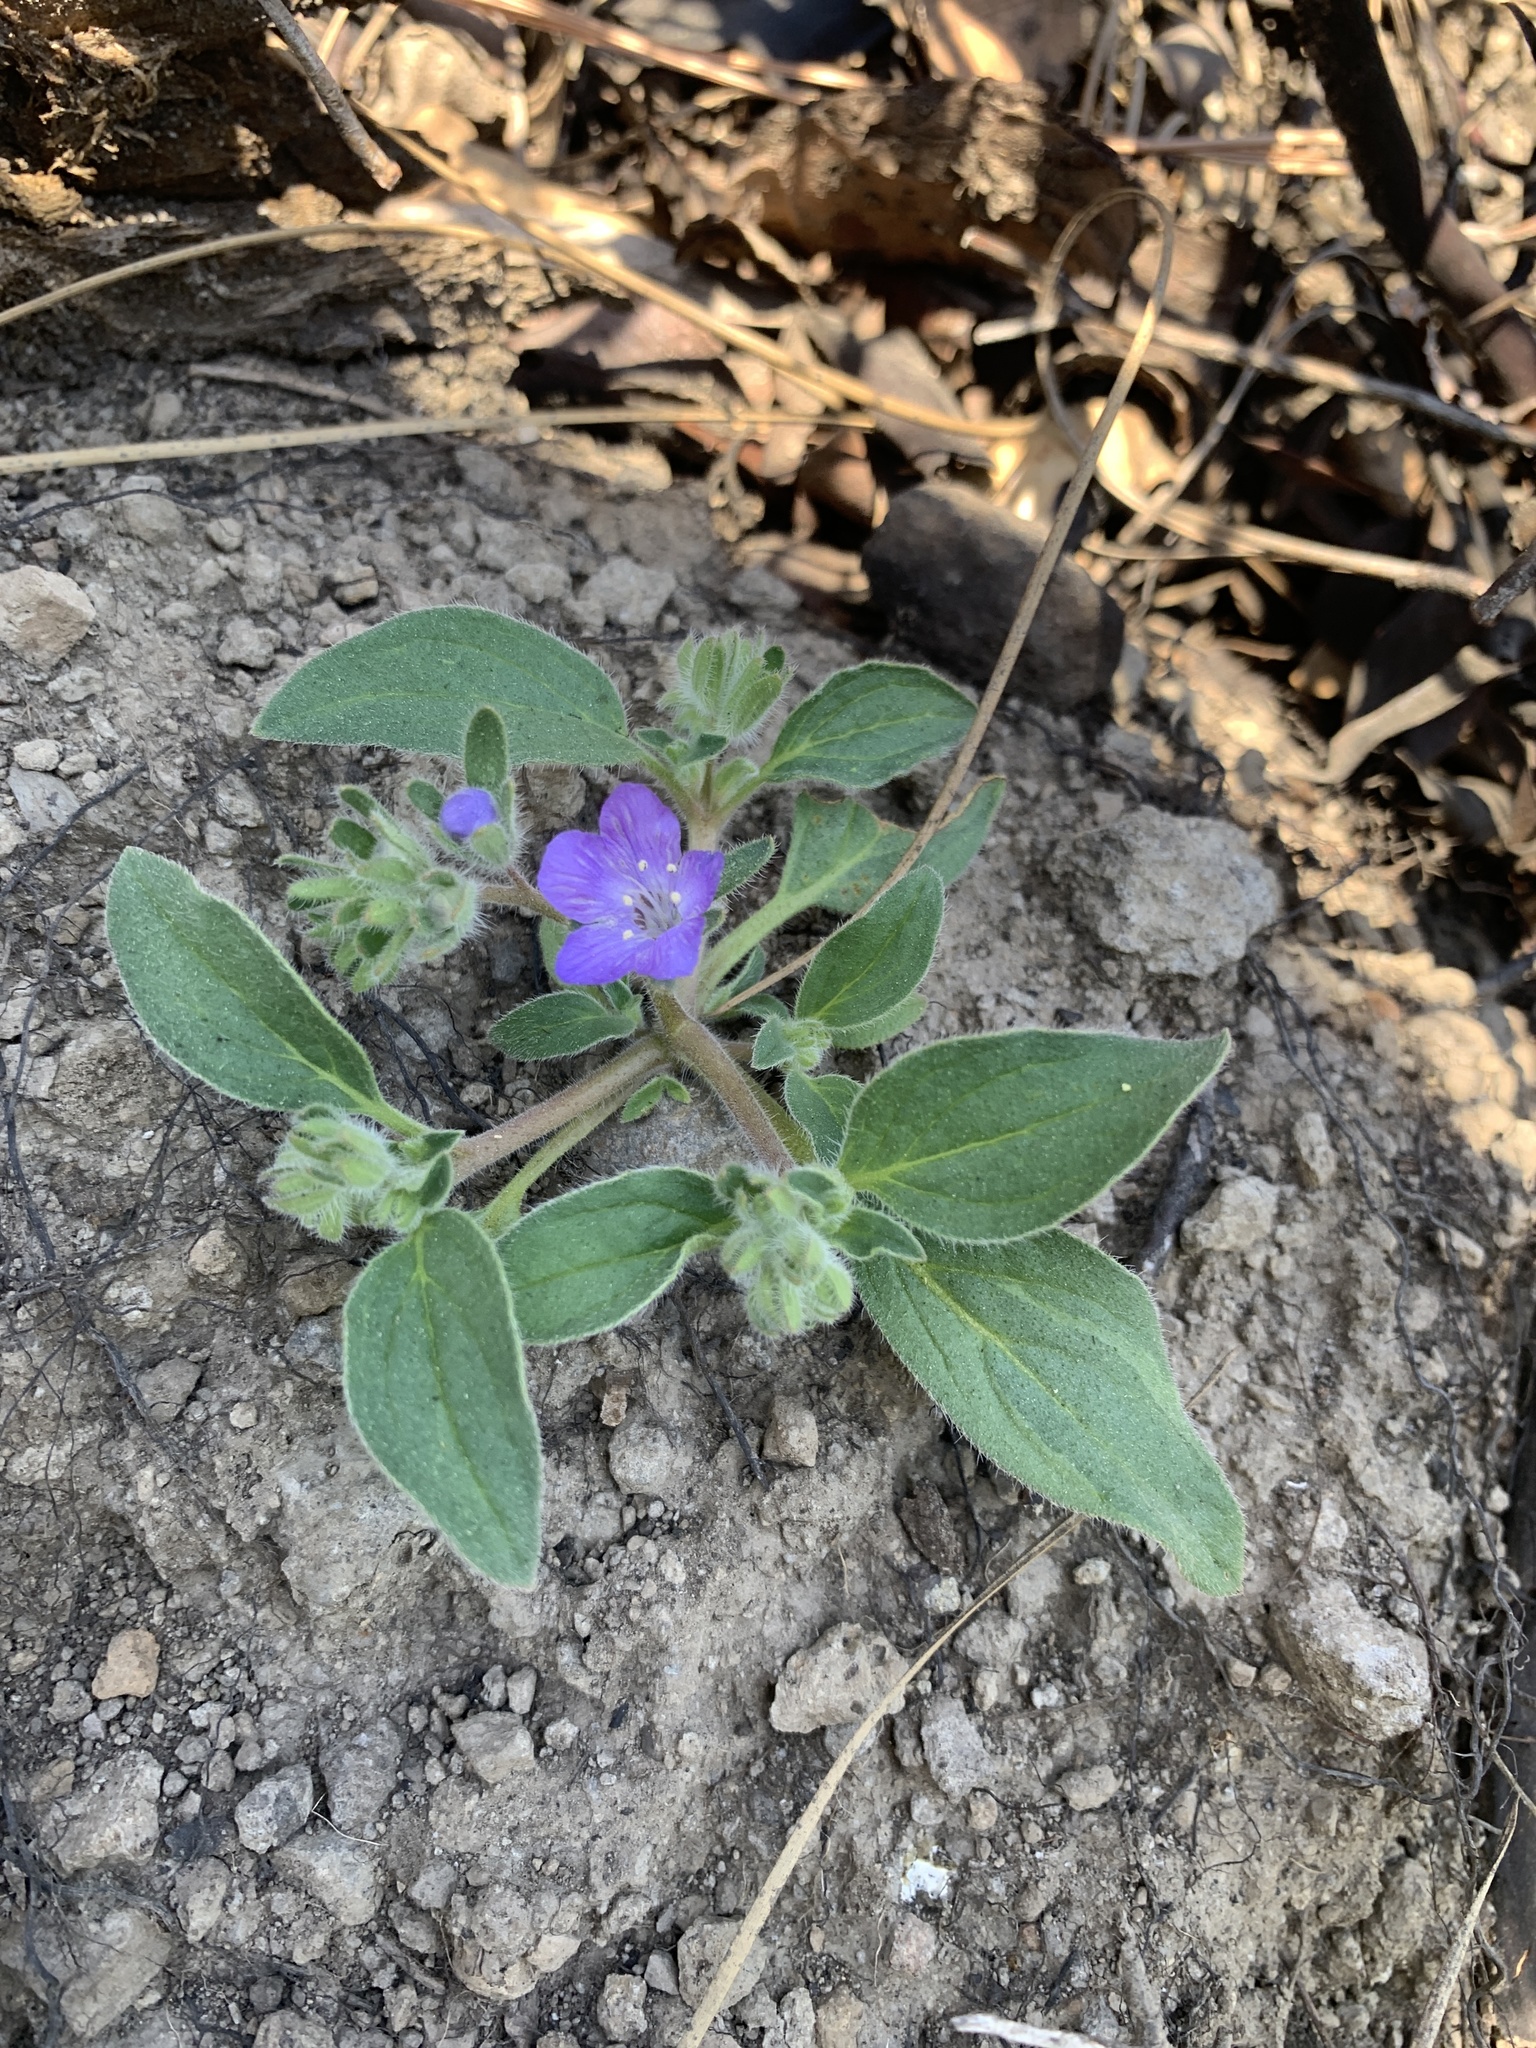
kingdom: Plantae
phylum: Tracheophyta
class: Magnoliopsida
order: Boraginales
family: Hydrophyllaceae
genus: Phacelia
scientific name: Phacelia divaricata
